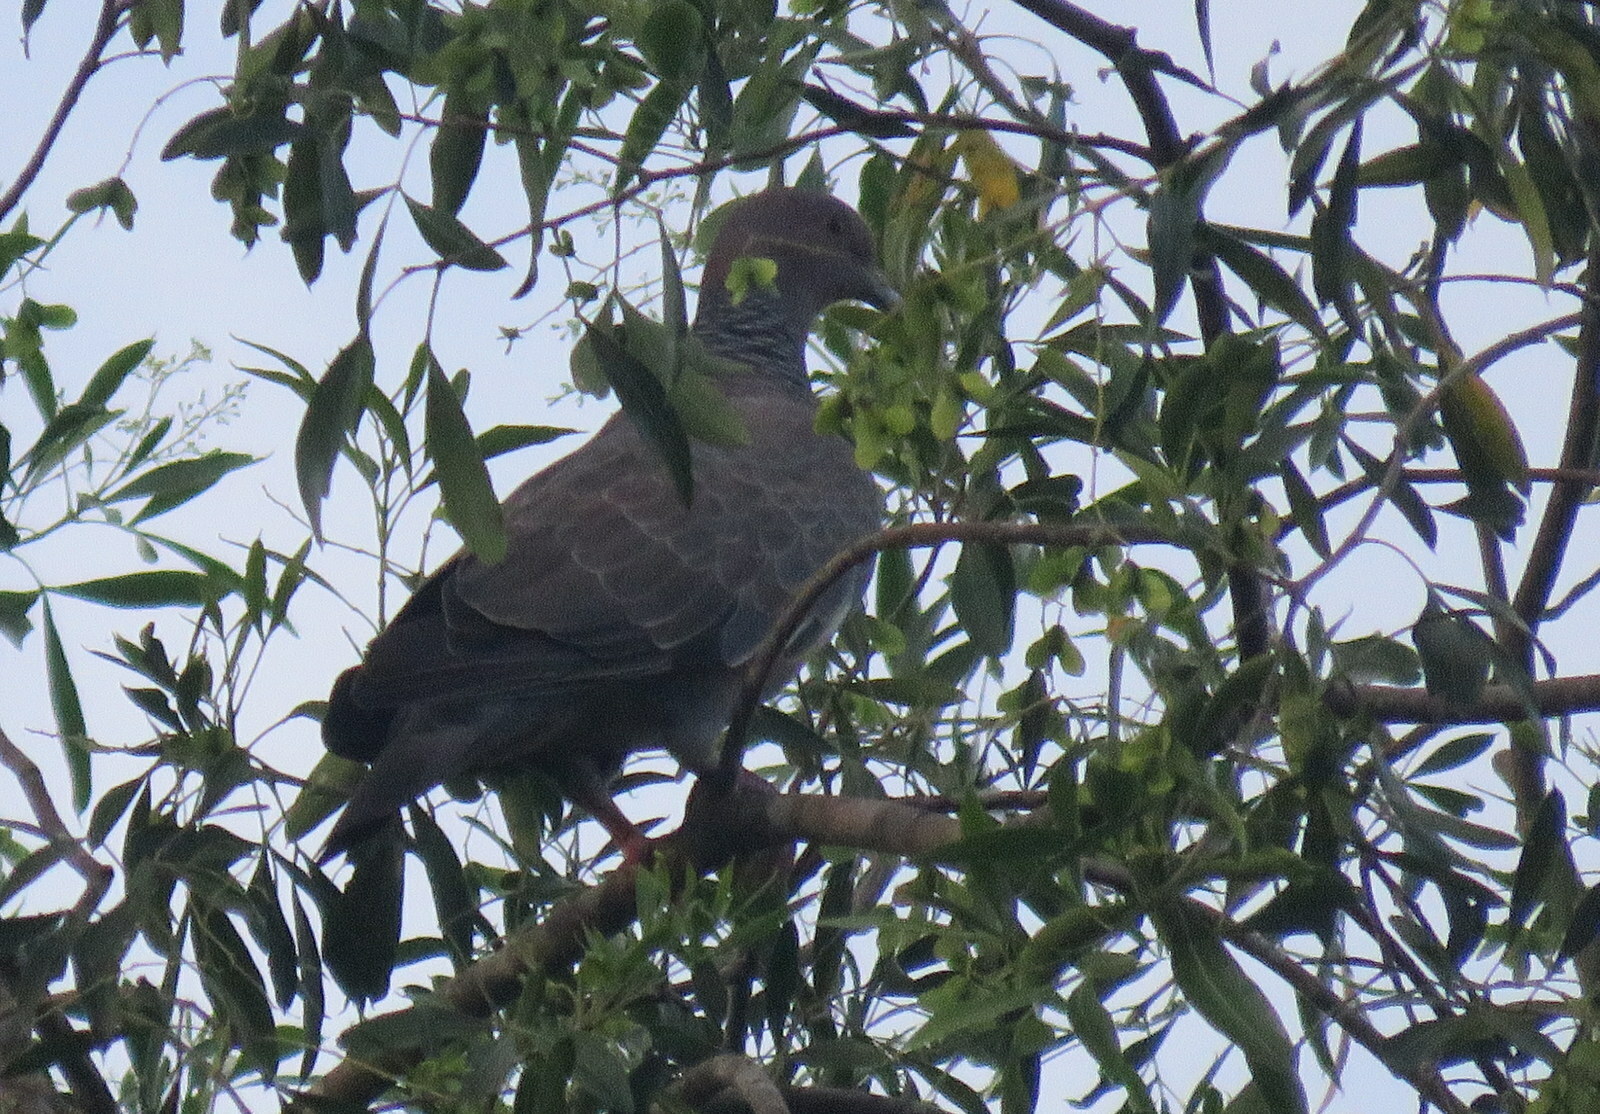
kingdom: Animalia
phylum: Chordata
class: Aves
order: Columbiformes
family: Columbidae
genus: Patagioenas
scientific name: Patagioenas picazuro
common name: Picazuro pigeon
